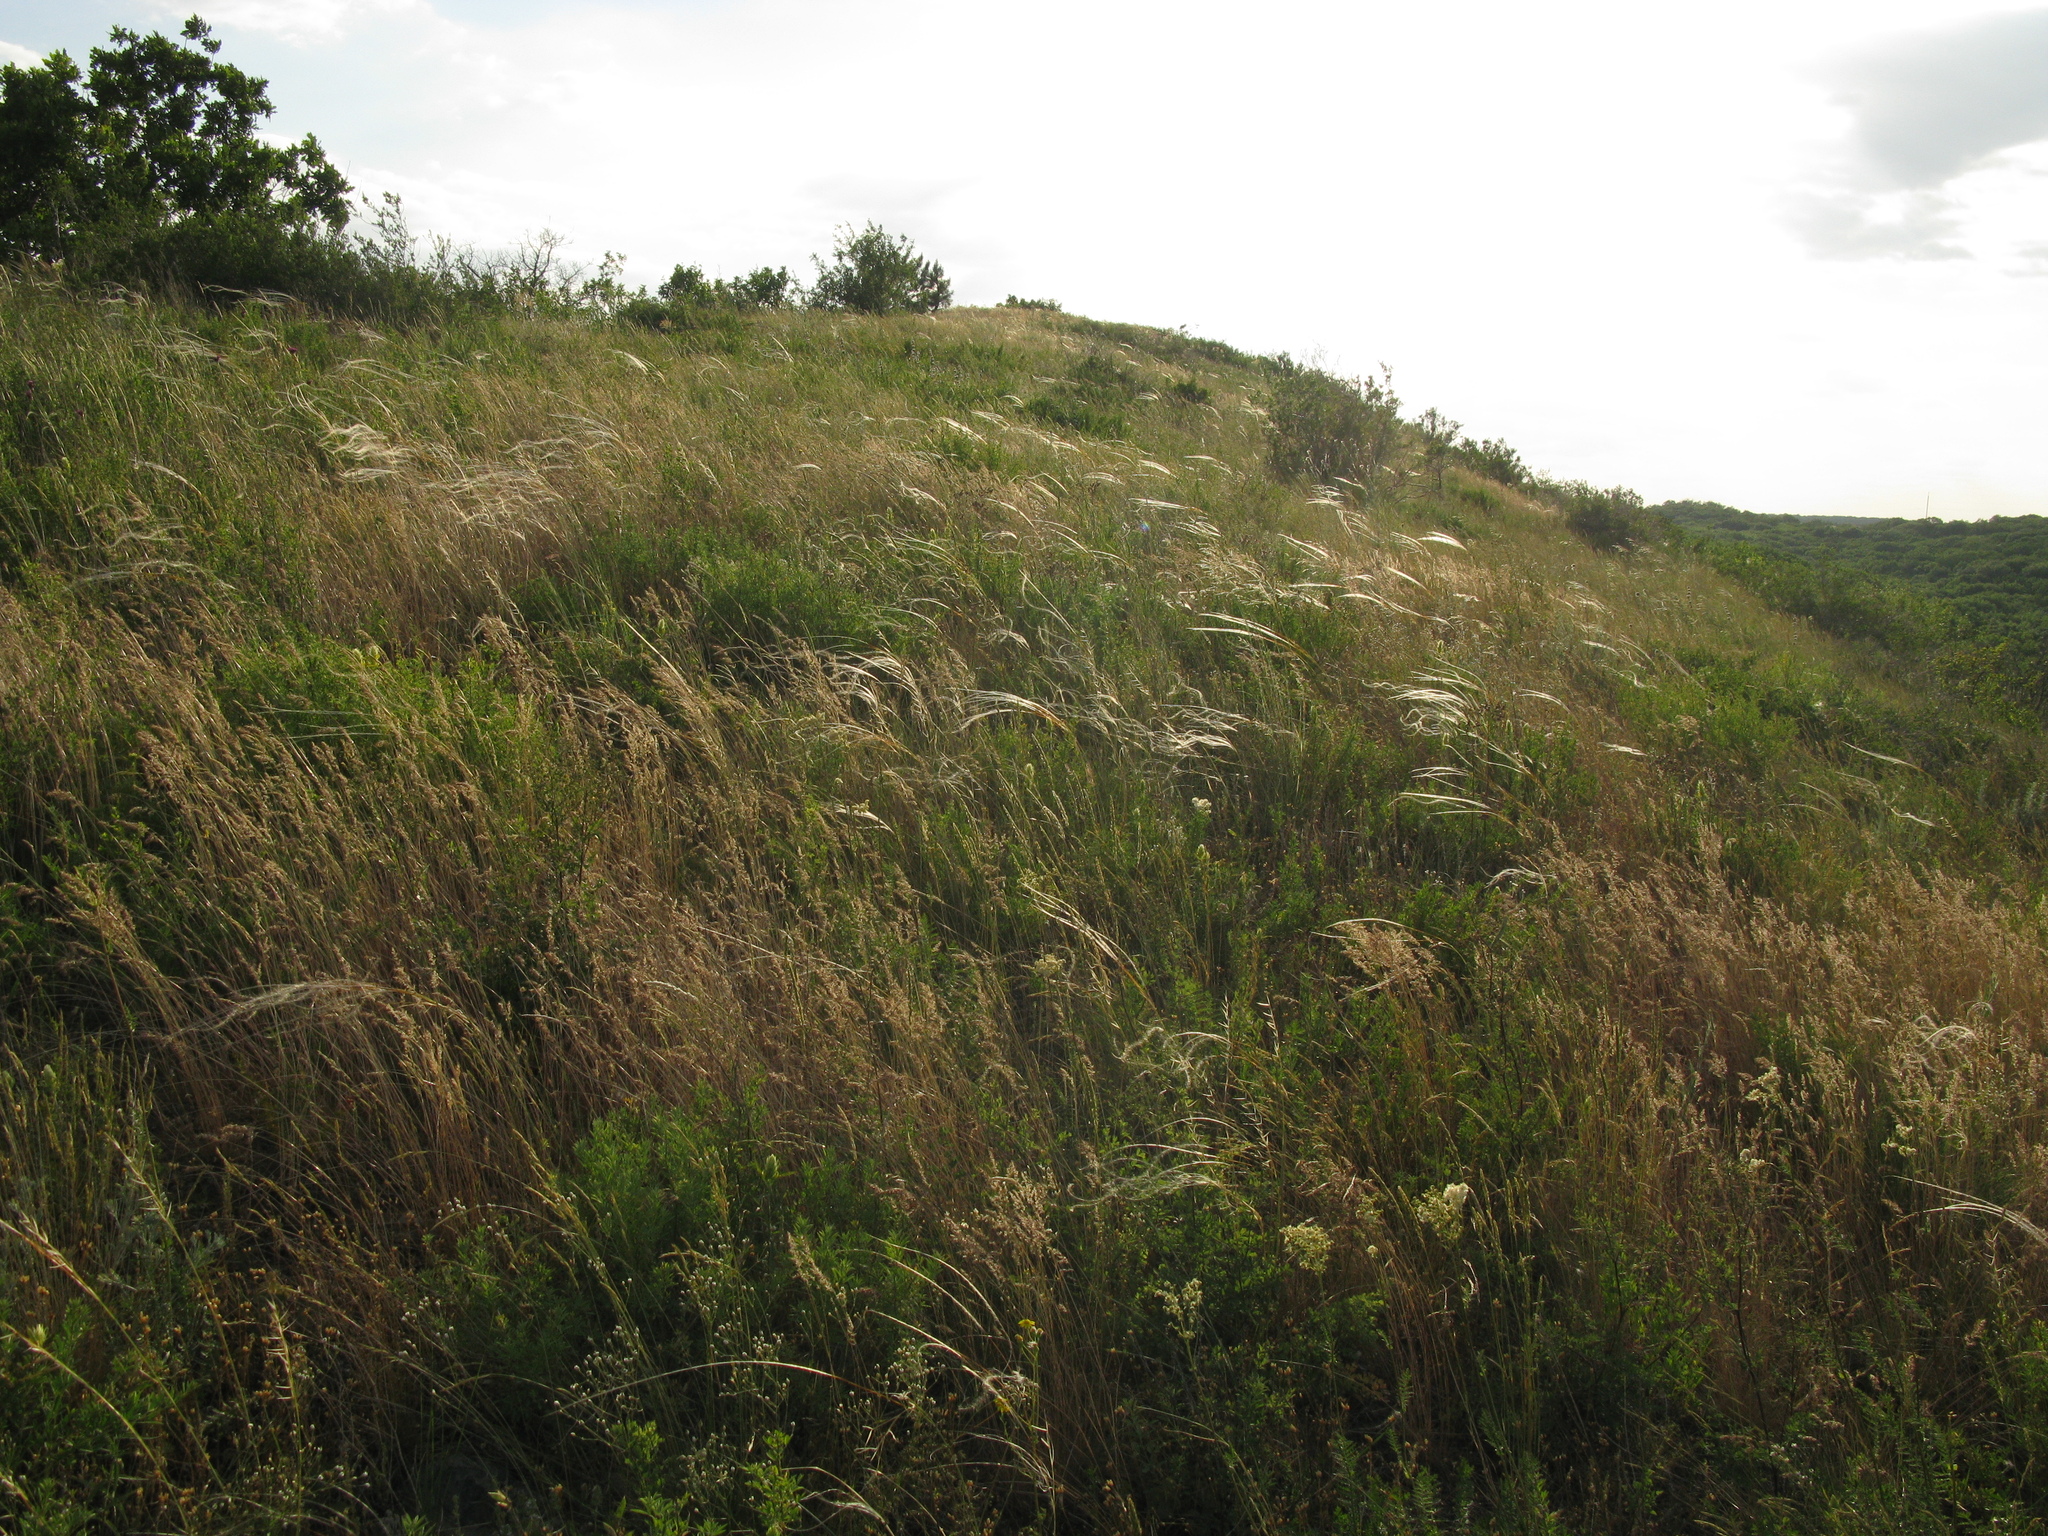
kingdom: Plantae
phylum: Tracheophyta
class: Magnoliopsida
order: Rosales
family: Rosaceae
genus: Filipendula
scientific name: Filipendula vulgaris
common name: Dropwort
